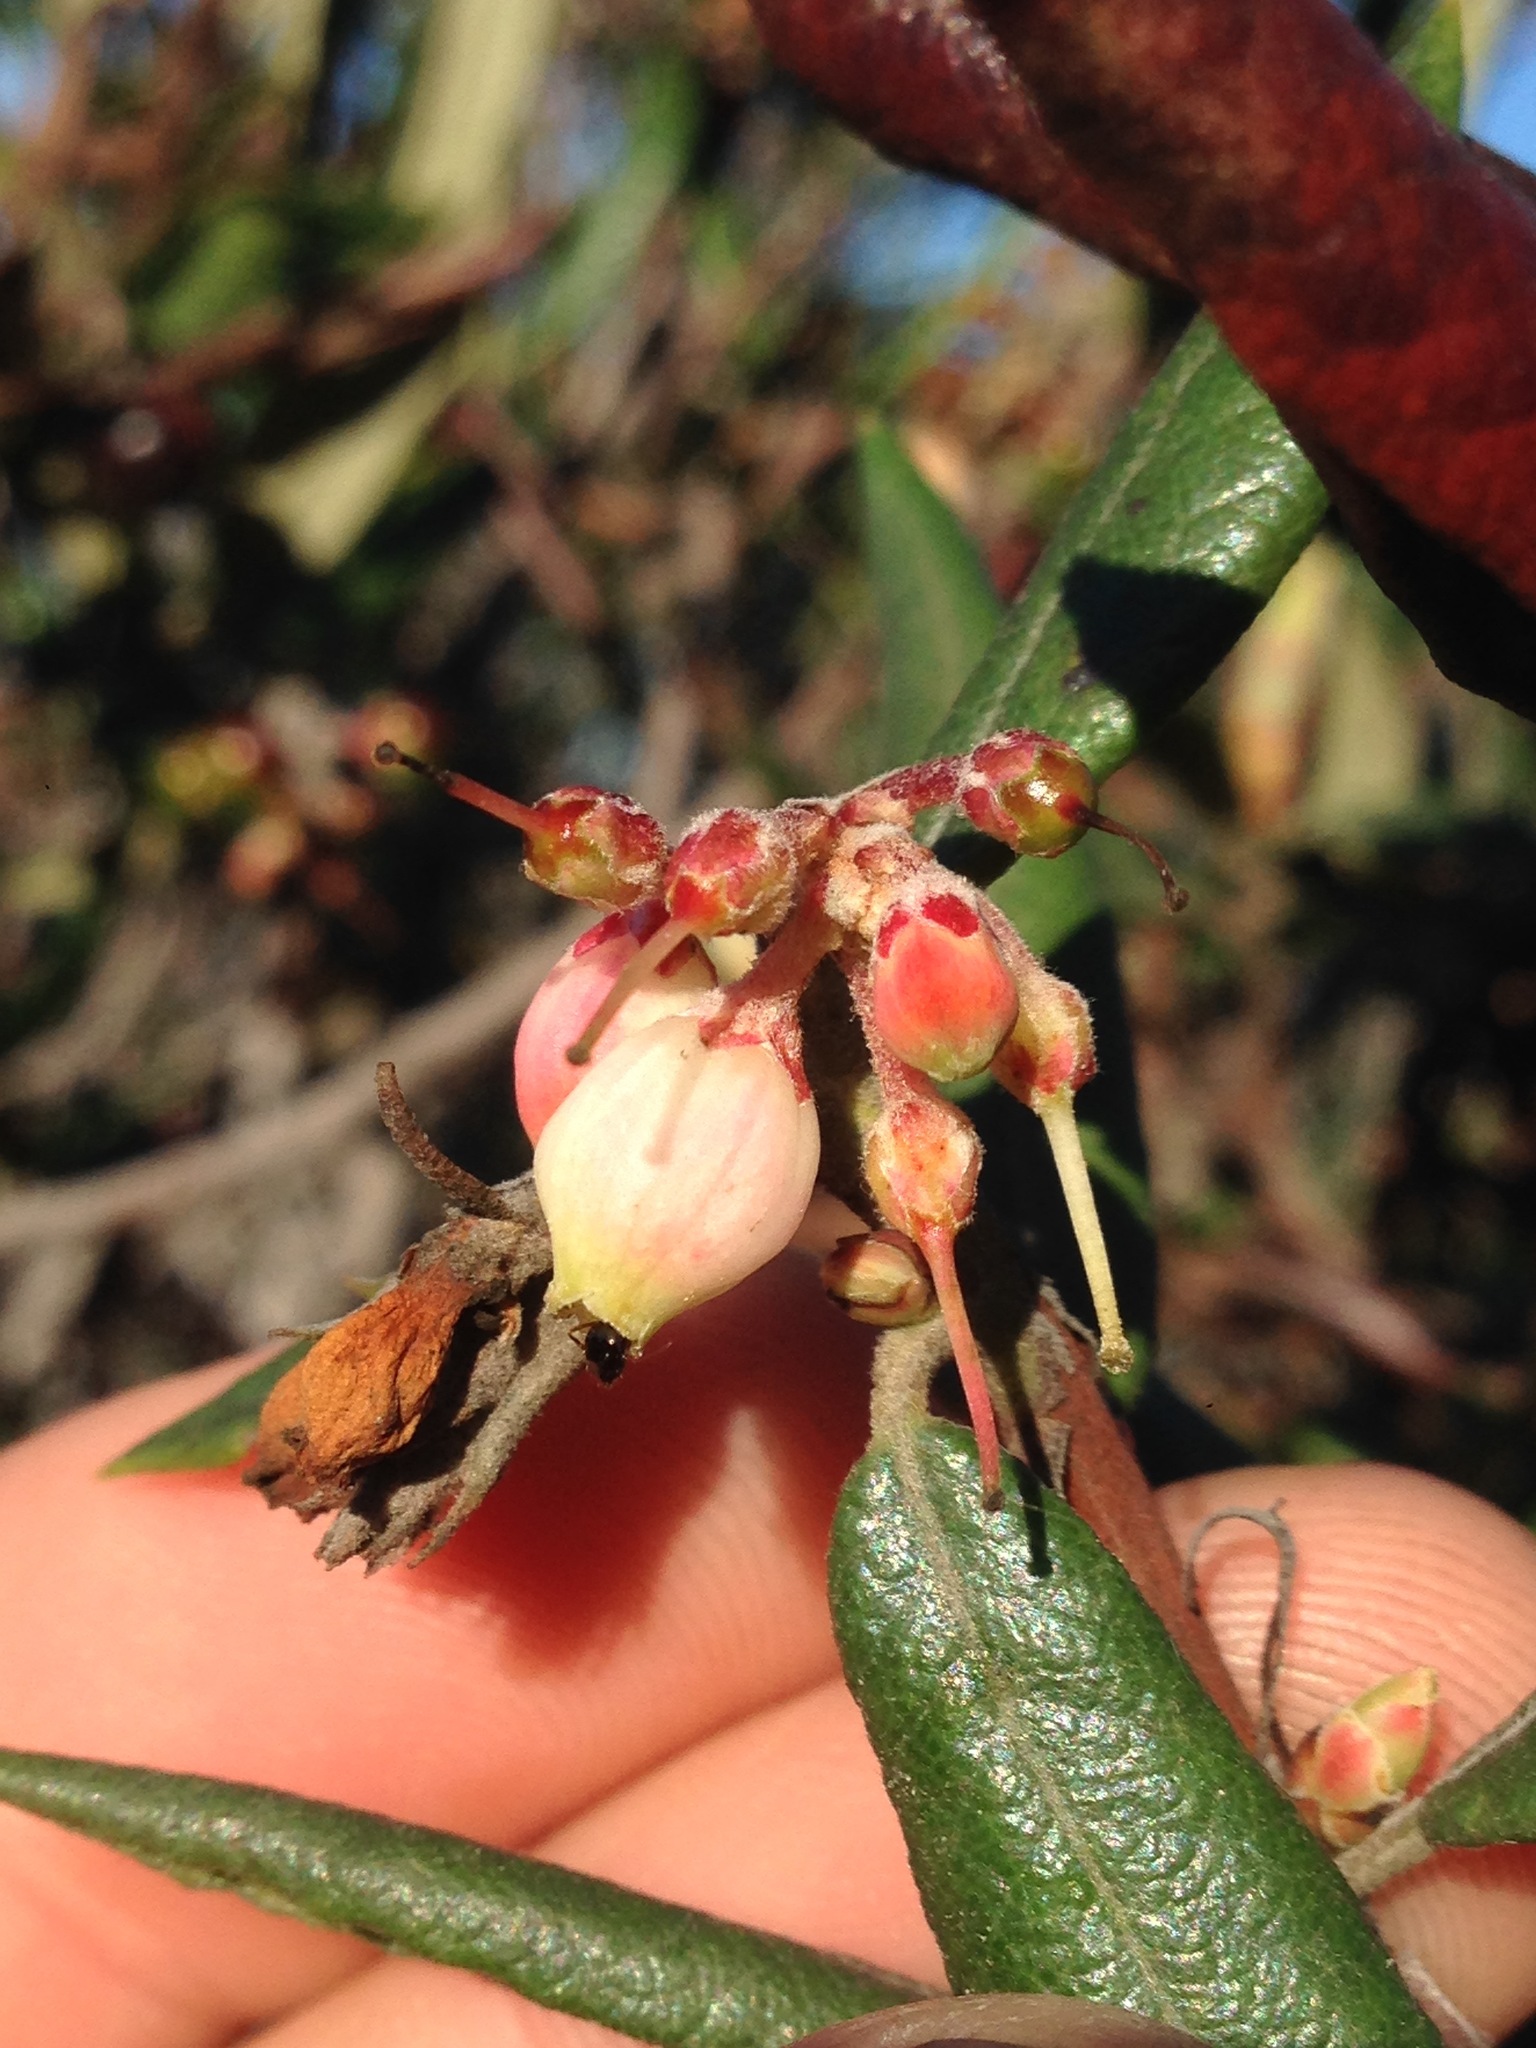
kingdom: Plantae
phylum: Tracheophyta
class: Magnoliopsida
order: Ericales
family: Ericaceae
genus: Arctostaphylos
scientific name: Arctostaphylos bicolor
